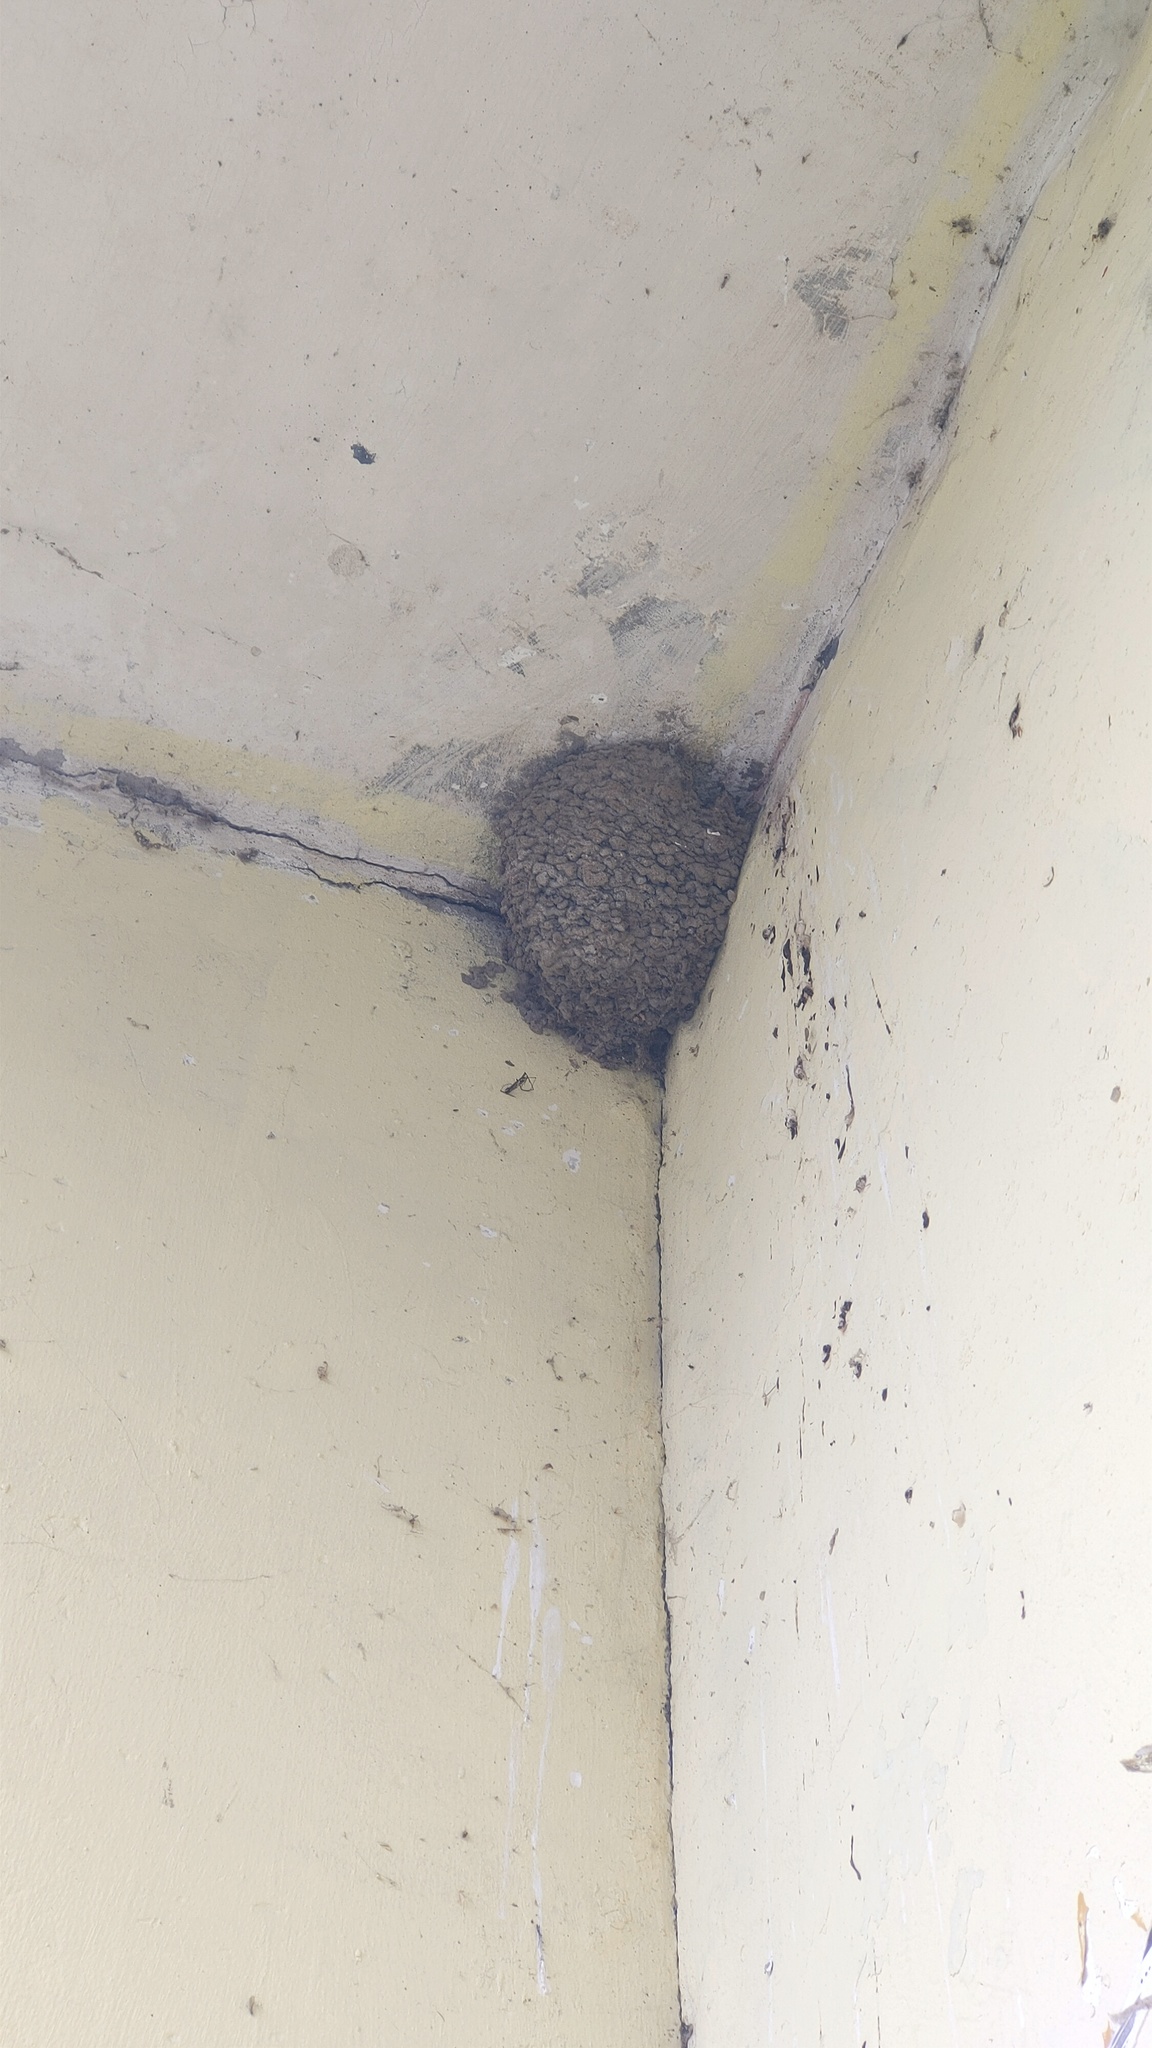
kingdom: Animalia
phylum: Chordata
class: Aves
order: Passeriformes
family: Hirundinidae
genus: Delichon
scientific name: Delichon urbicum
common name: Common house martin
